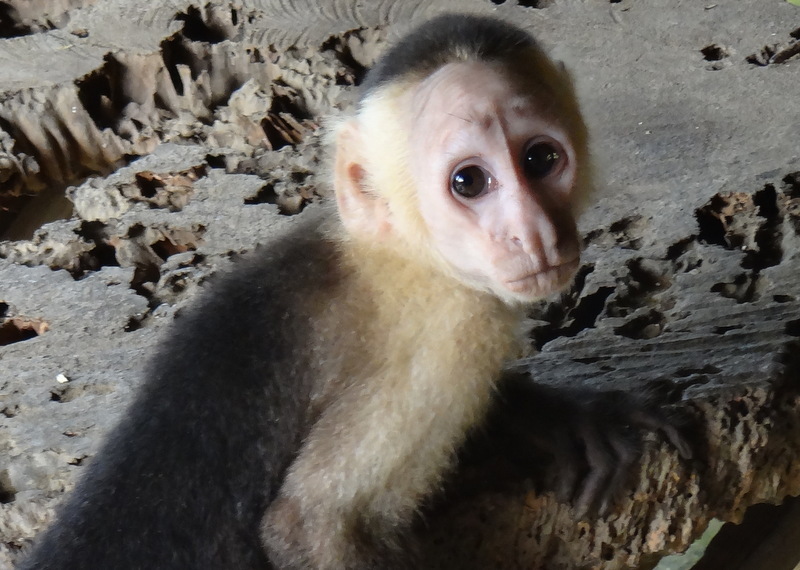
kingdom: Animalia
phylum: Chordata
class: Mammalia
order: Primates
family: Cebidae
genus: Cebus
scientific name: Cebus capucinus
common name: White-headed capuchin
